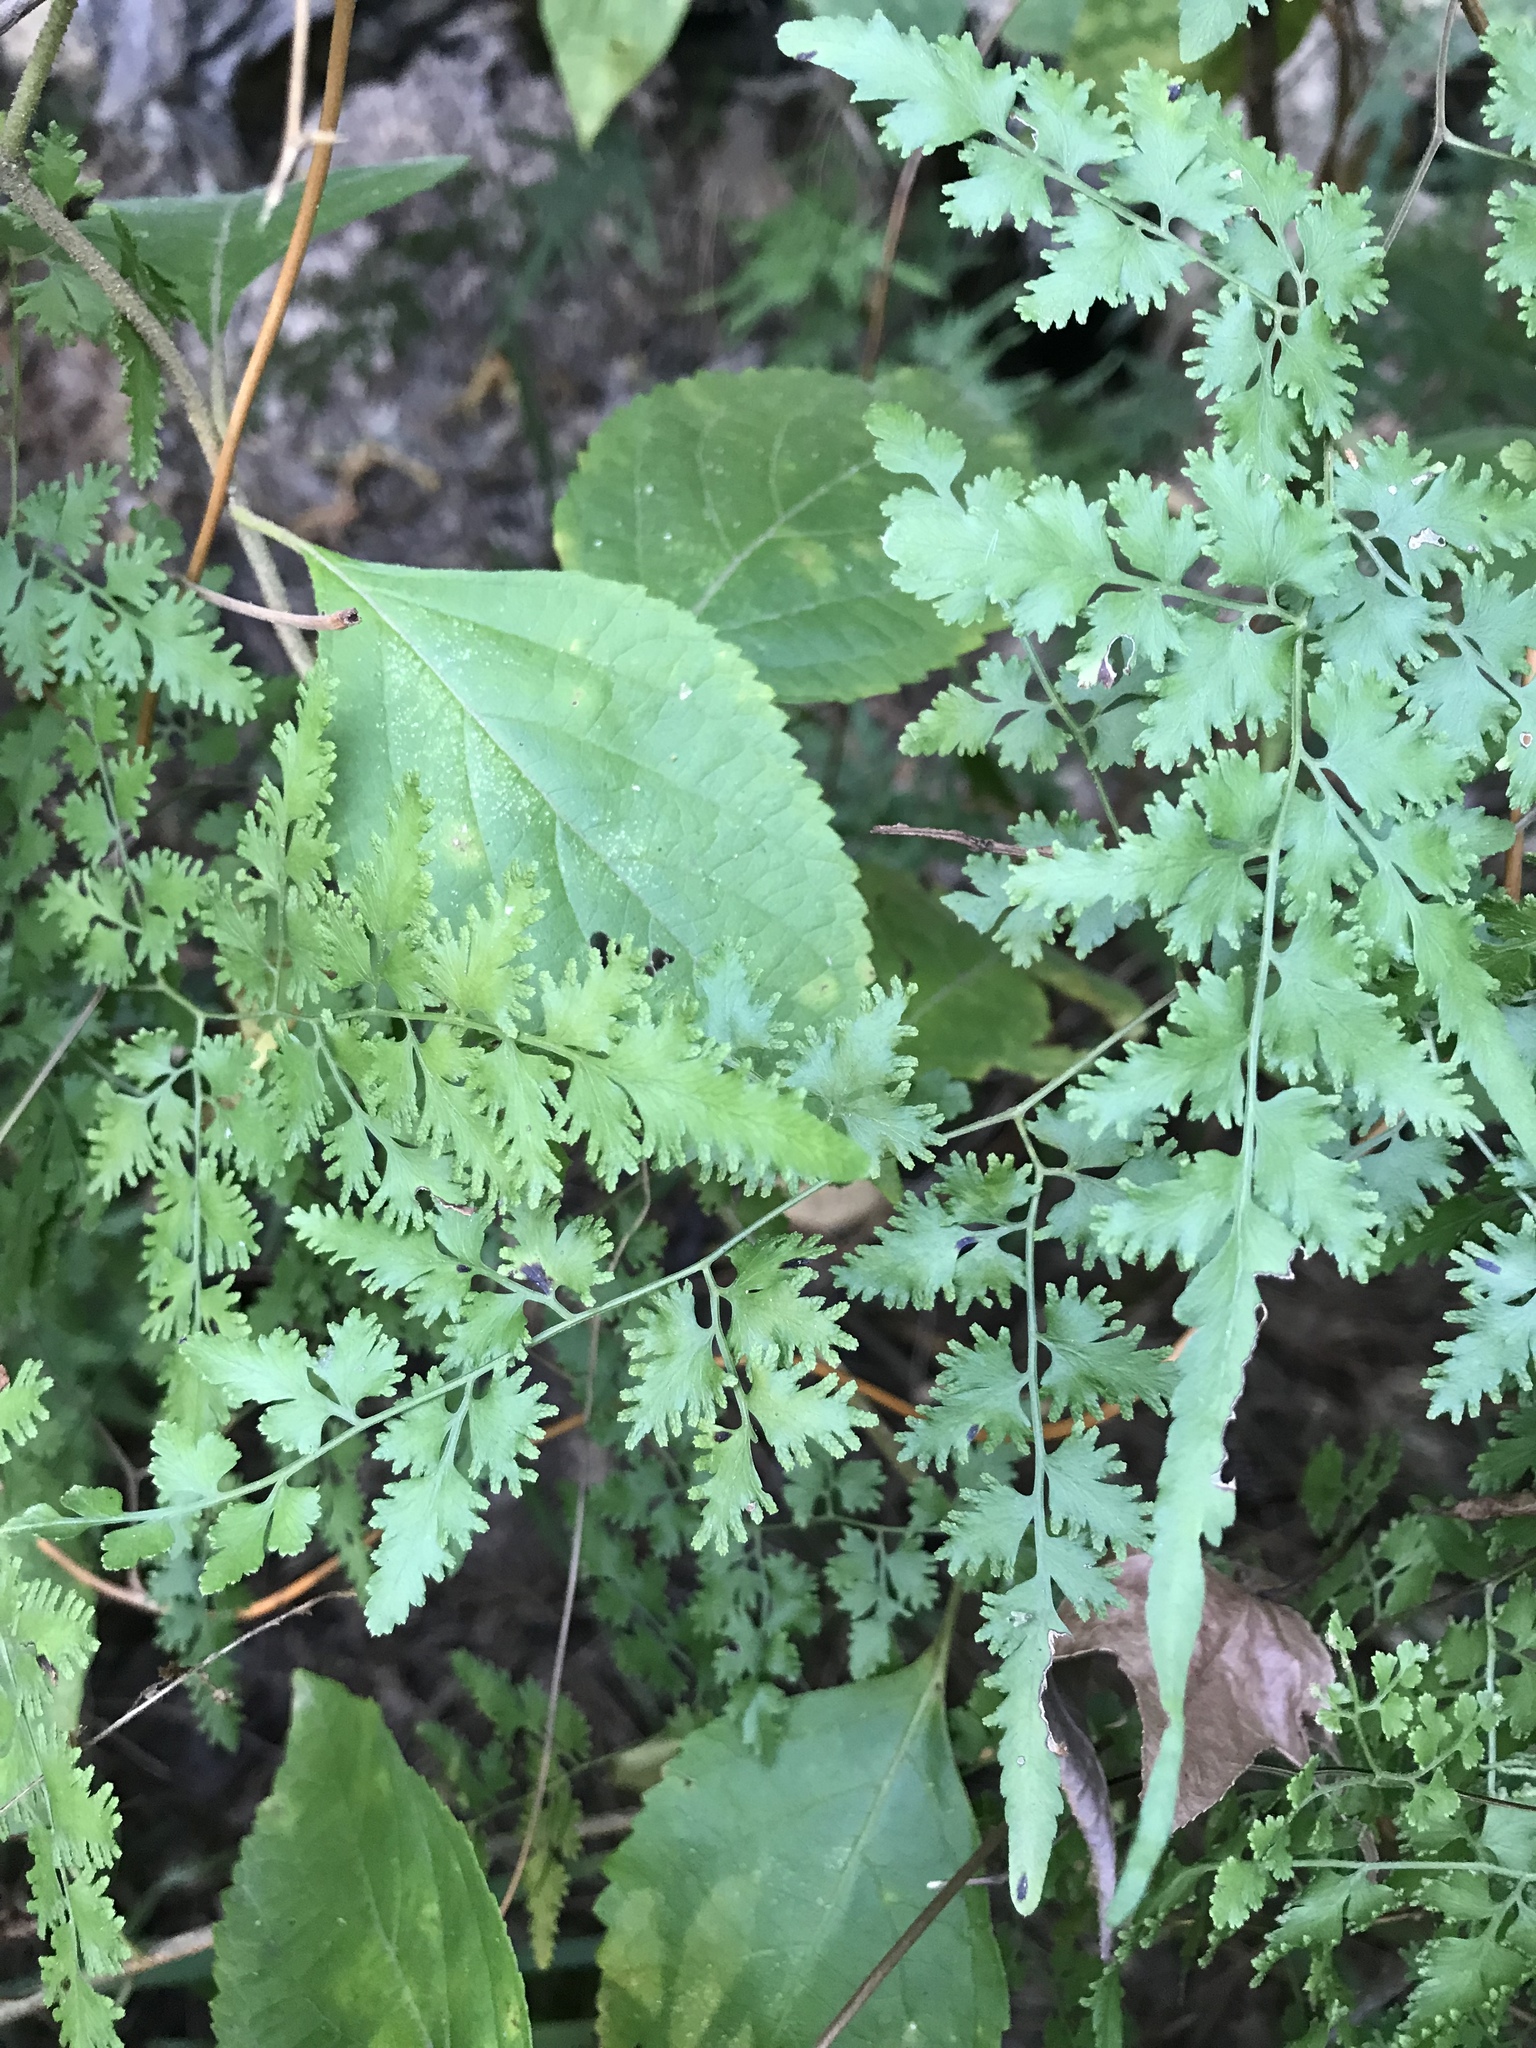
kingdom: Plantae
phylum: Tracheophyta
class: Polypodiopsida
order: Schizaeales
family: Lygodiaceae
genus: Lygodium
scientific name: Lygodium japonicum
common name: Japanese climbing fern
